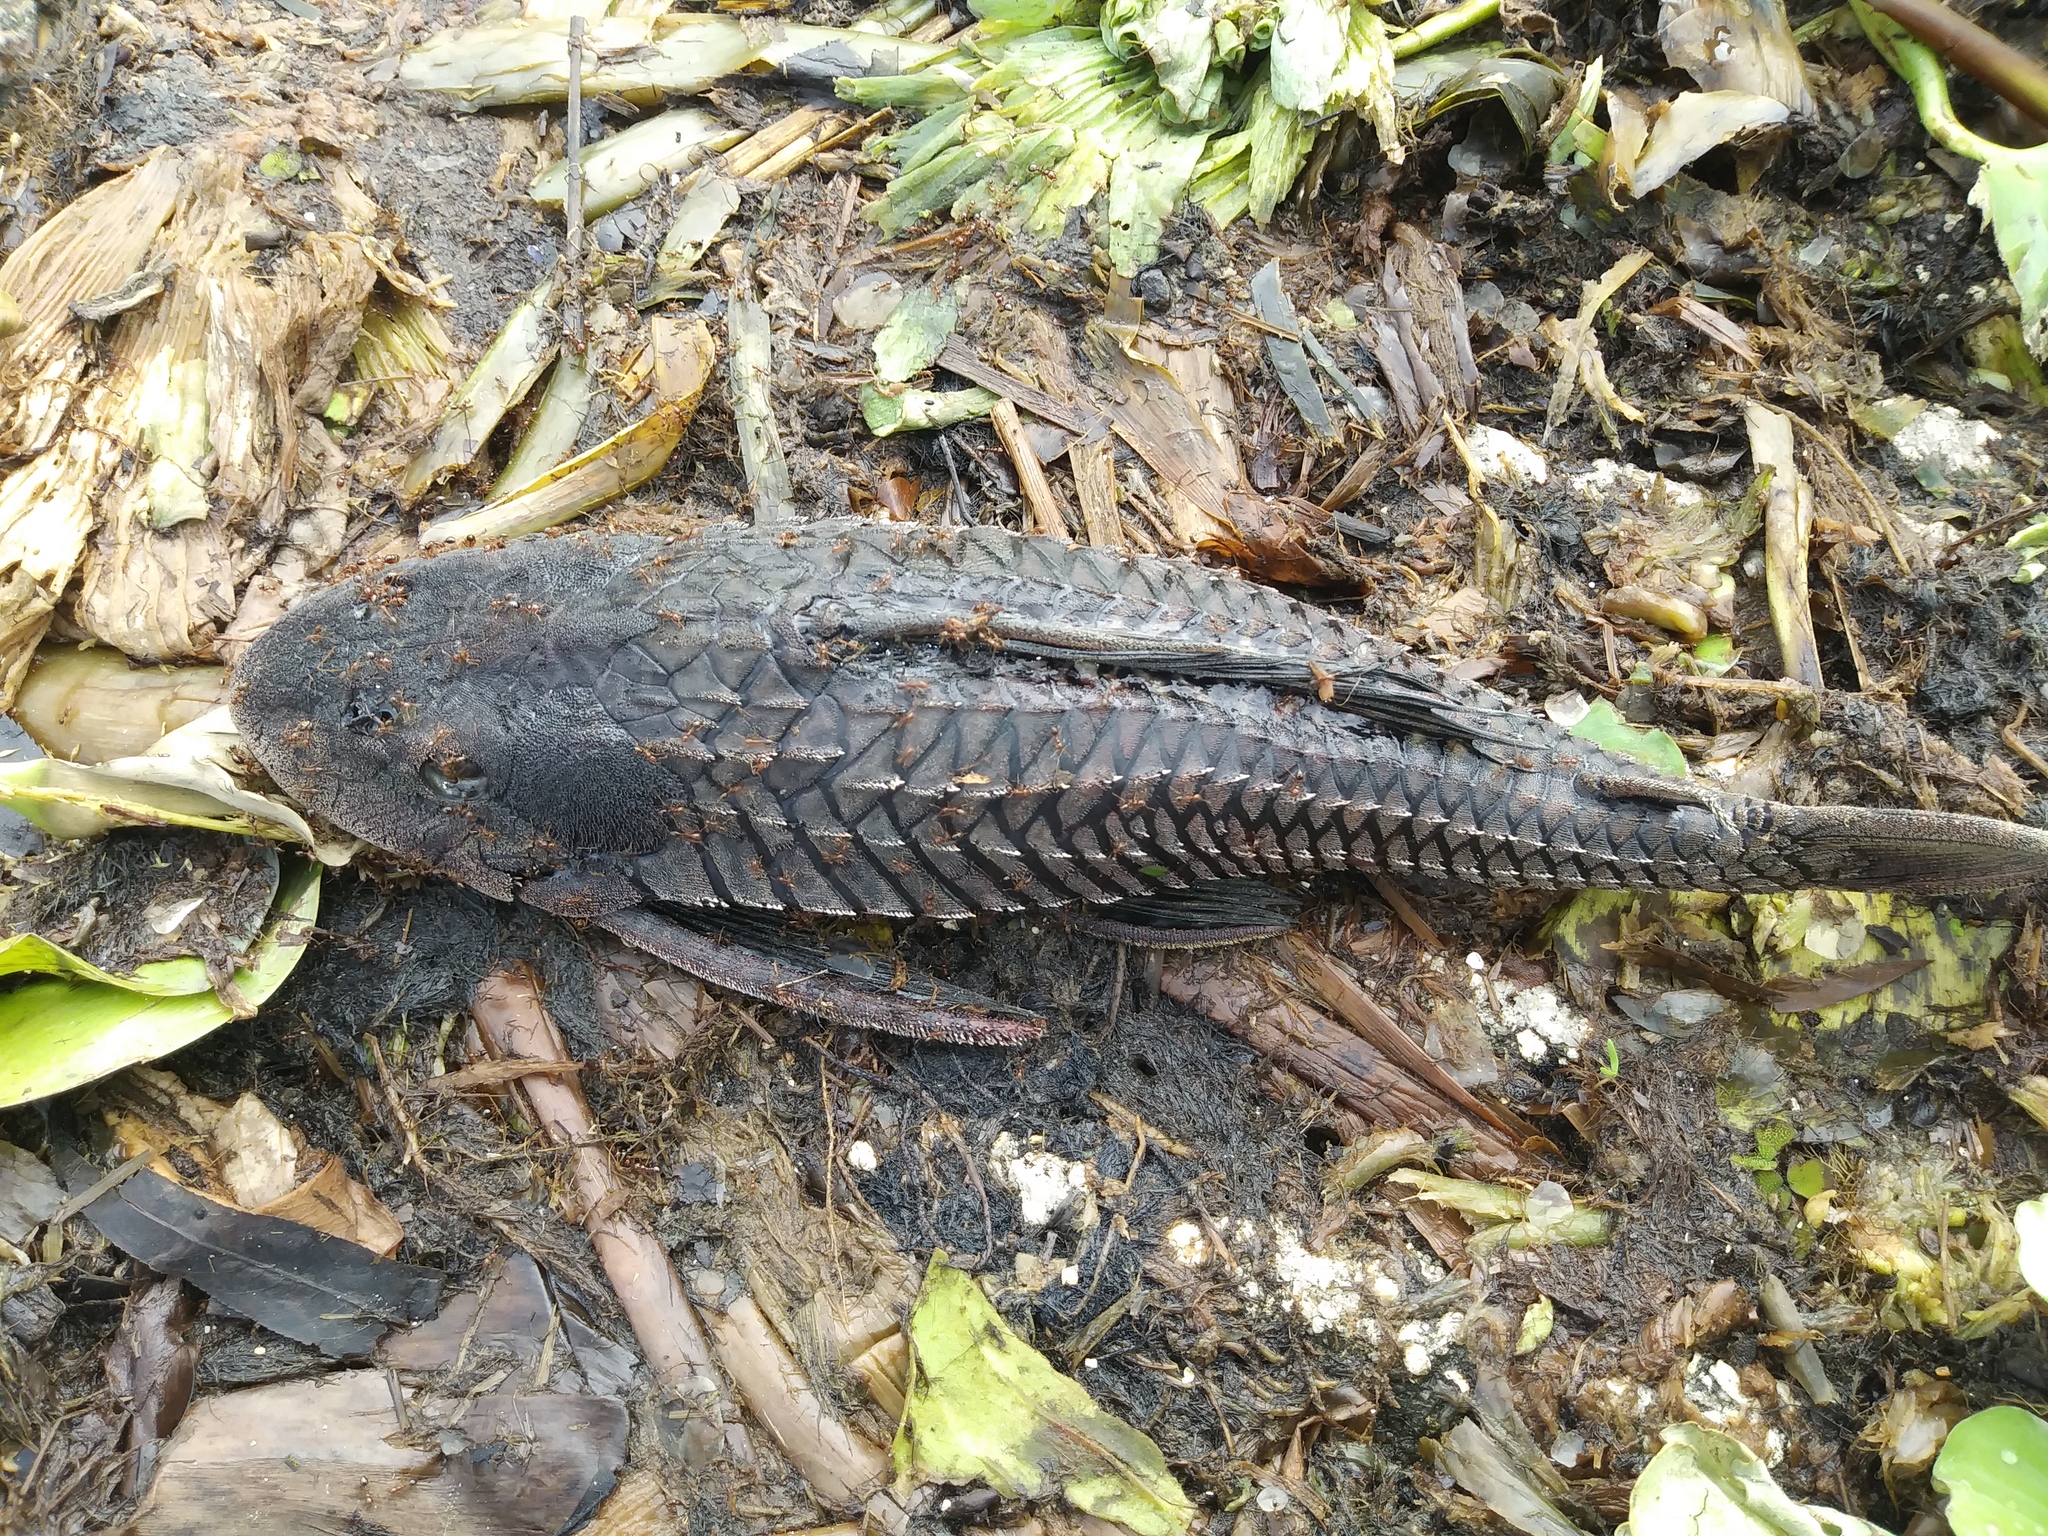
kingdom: Animalia
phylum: Chordata
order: Siluriformes
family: Loricariidae
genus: Pterygoplichthys
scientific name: Pterygoplichthys
